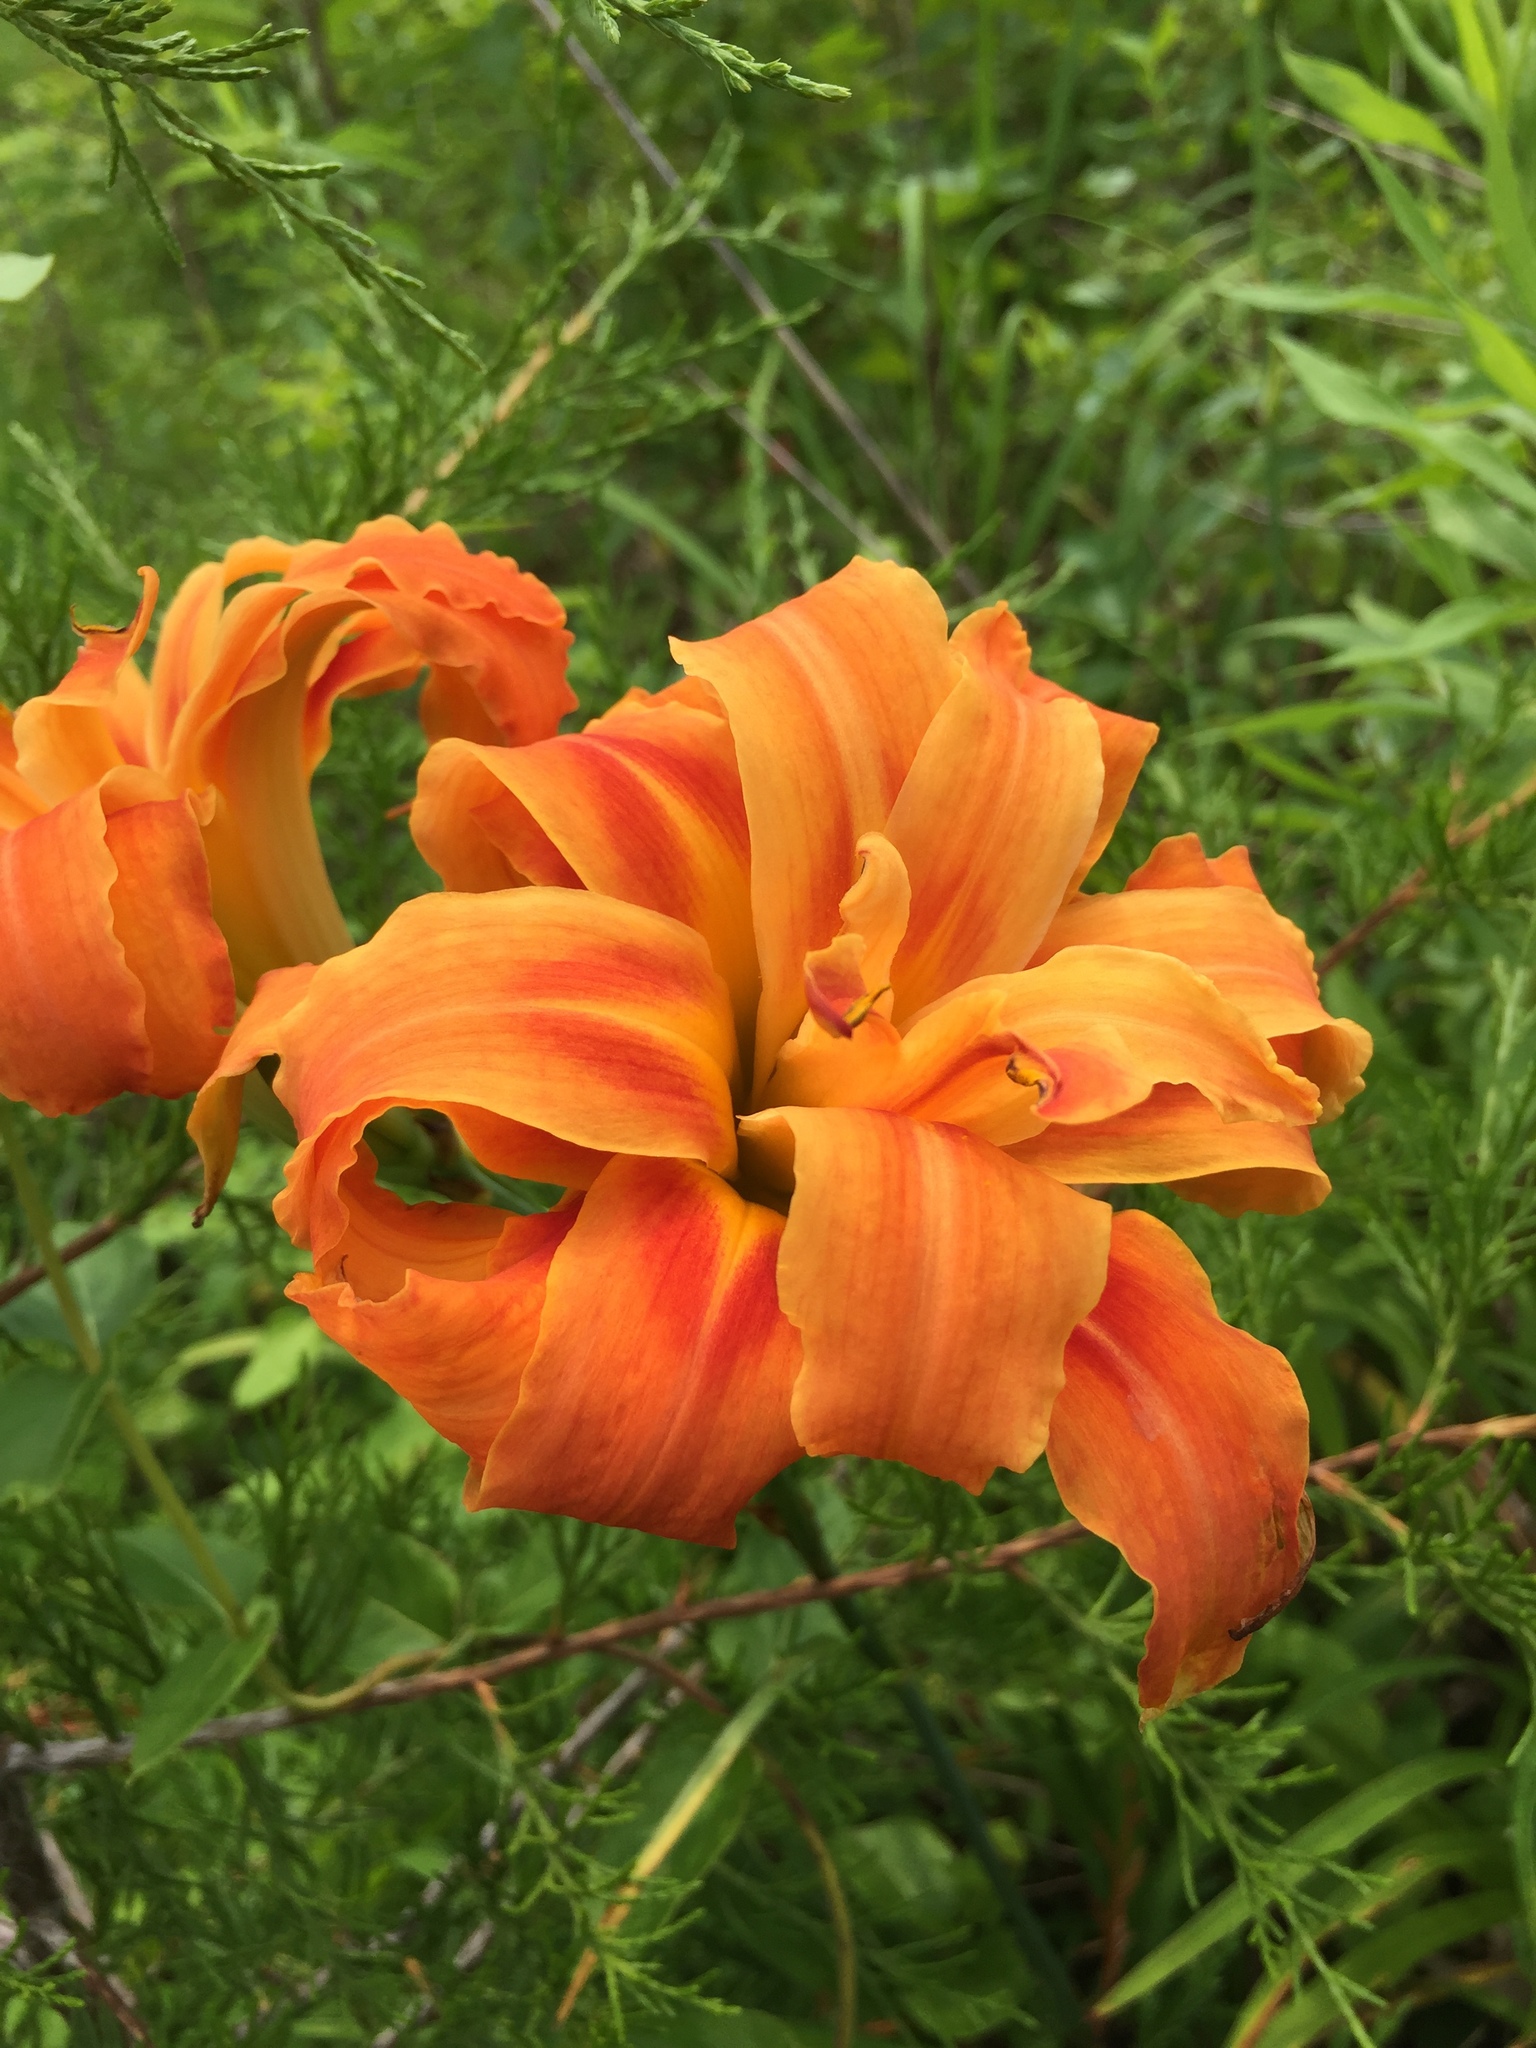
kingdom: Plantae
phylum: Tracheophyta
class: Liliopsida
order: Asparagales
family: Asphodelaceae
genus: Hemerocallis
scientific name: Hemerocallis fulva
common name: Orange day-lily
